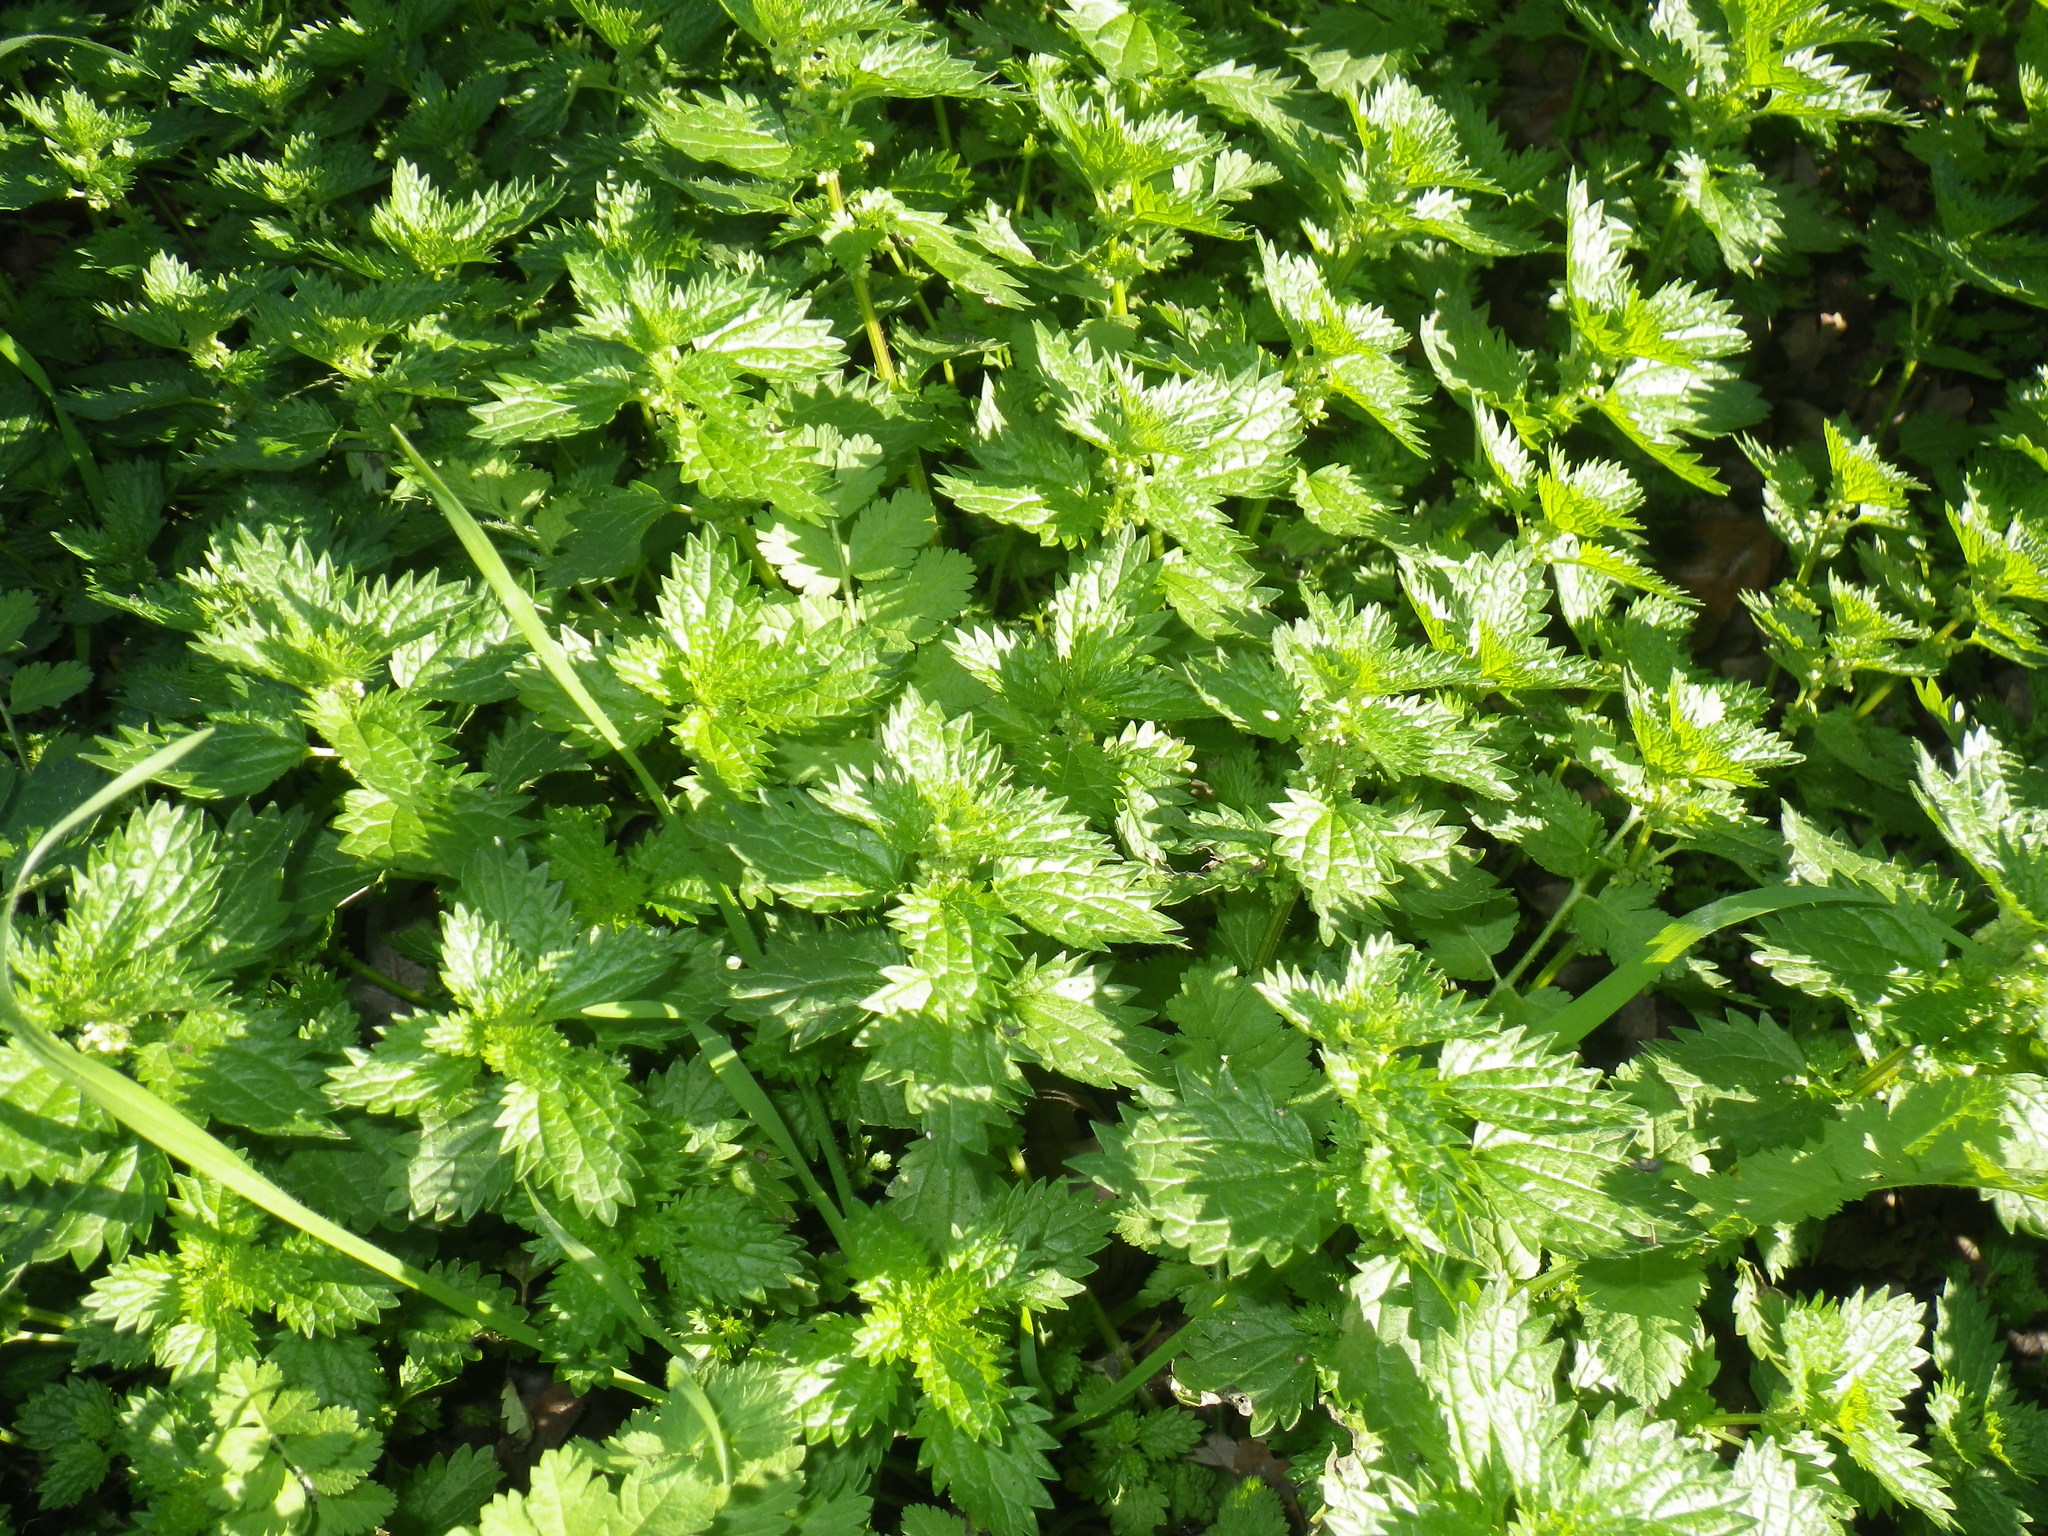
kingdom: Plantae
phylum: Tracheophyta
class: Magnoliopsida
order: Rosales
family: Urticaceae
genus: Urtica
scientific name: Urtica urens
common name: Dwarf nettle
